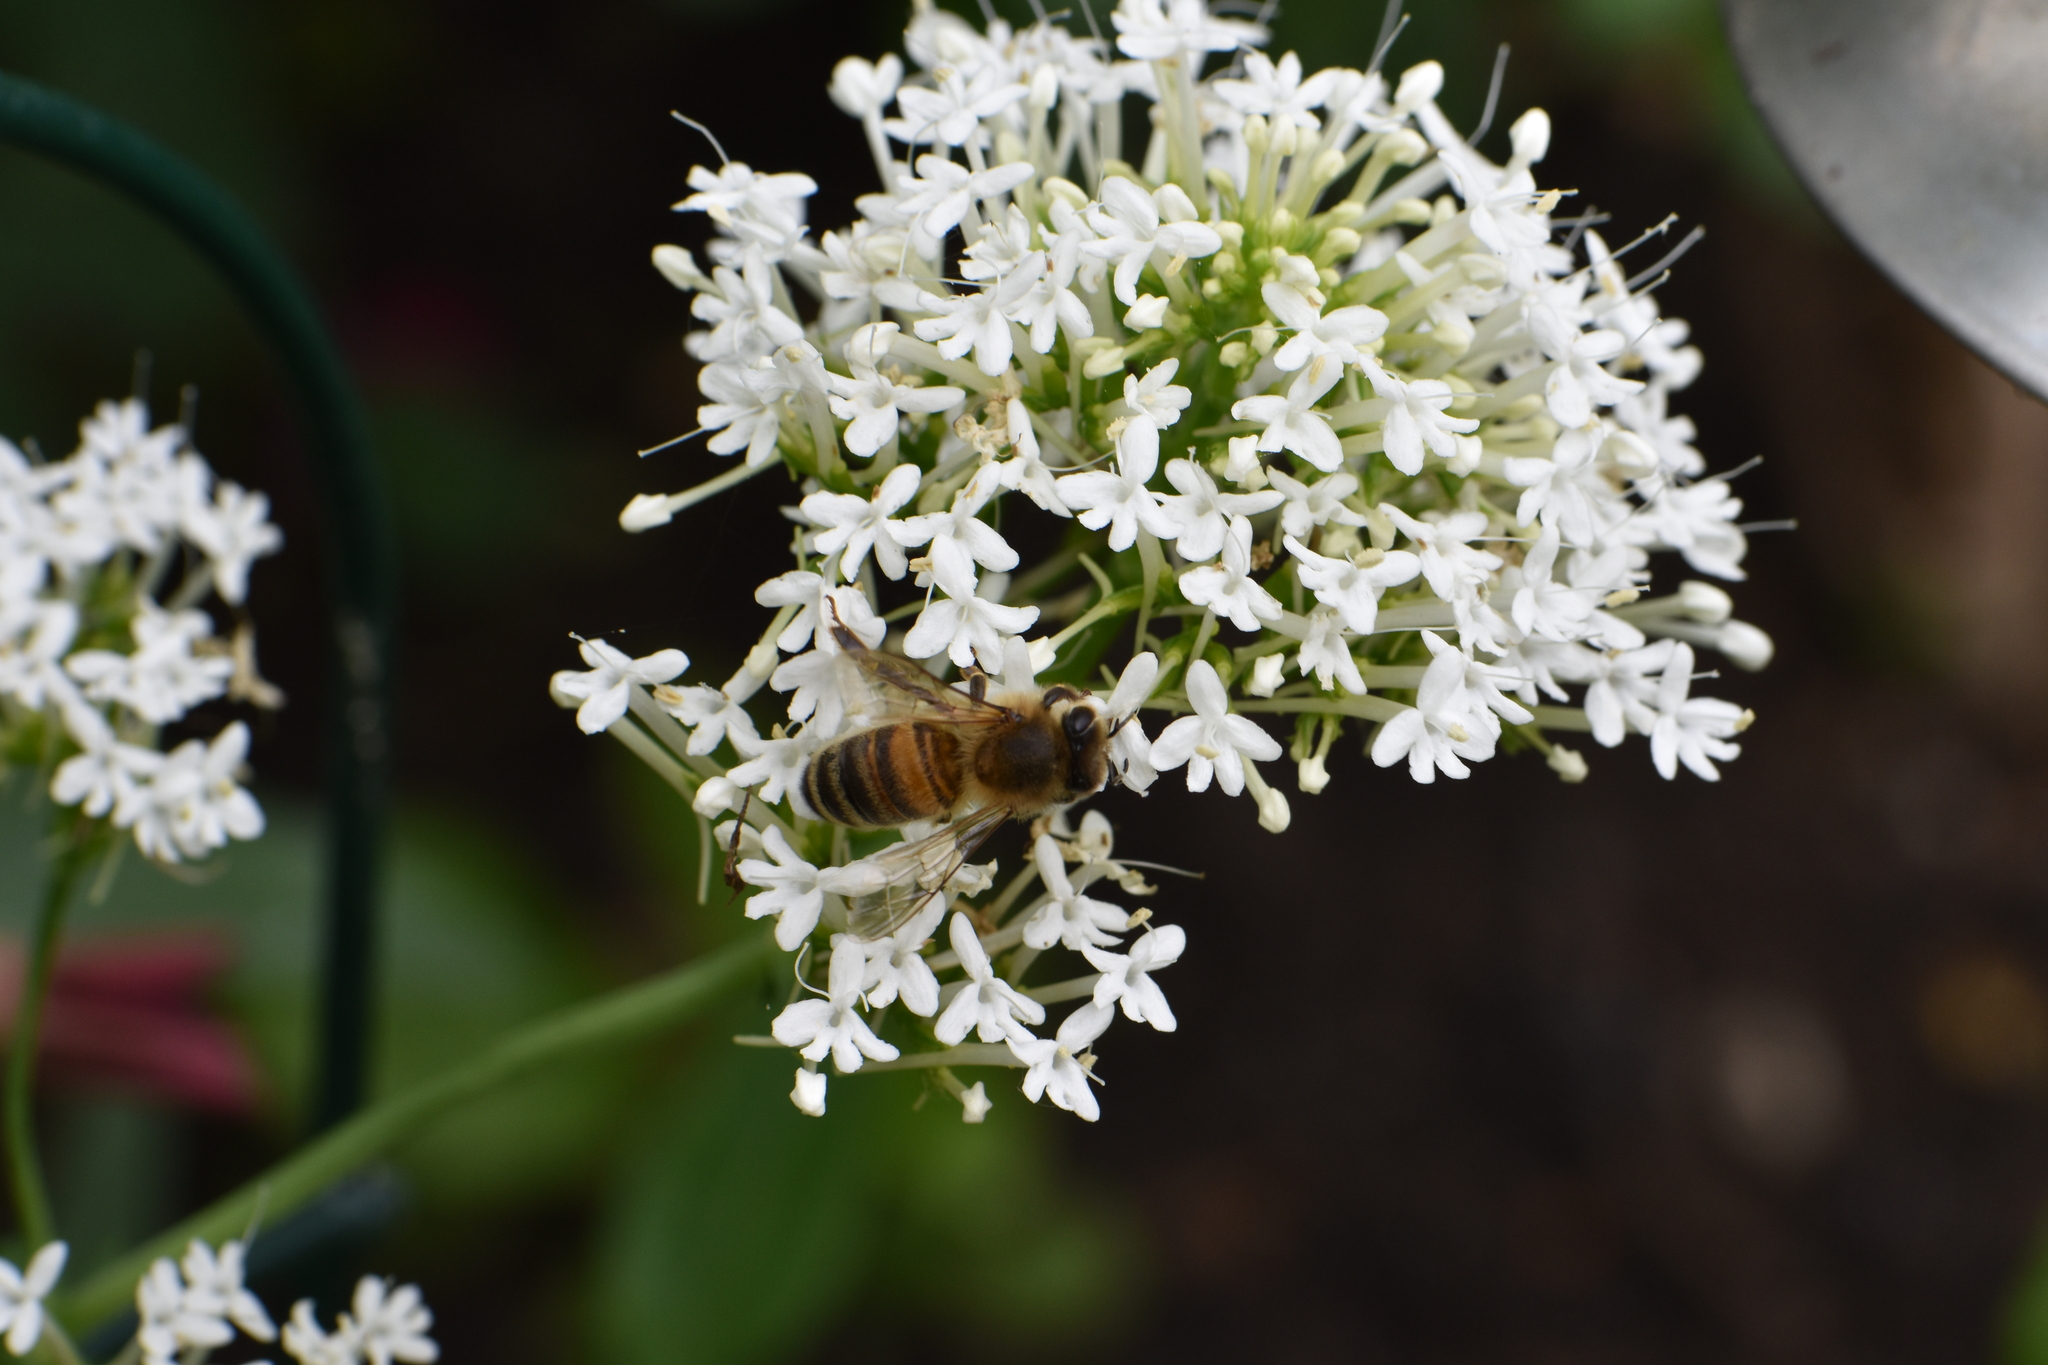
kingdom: Animalia
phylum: Arthropoda
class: Insecta
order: Hymenoptera
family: Apidae
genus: Apis
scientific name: Apis mellifera
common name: Honey bee
